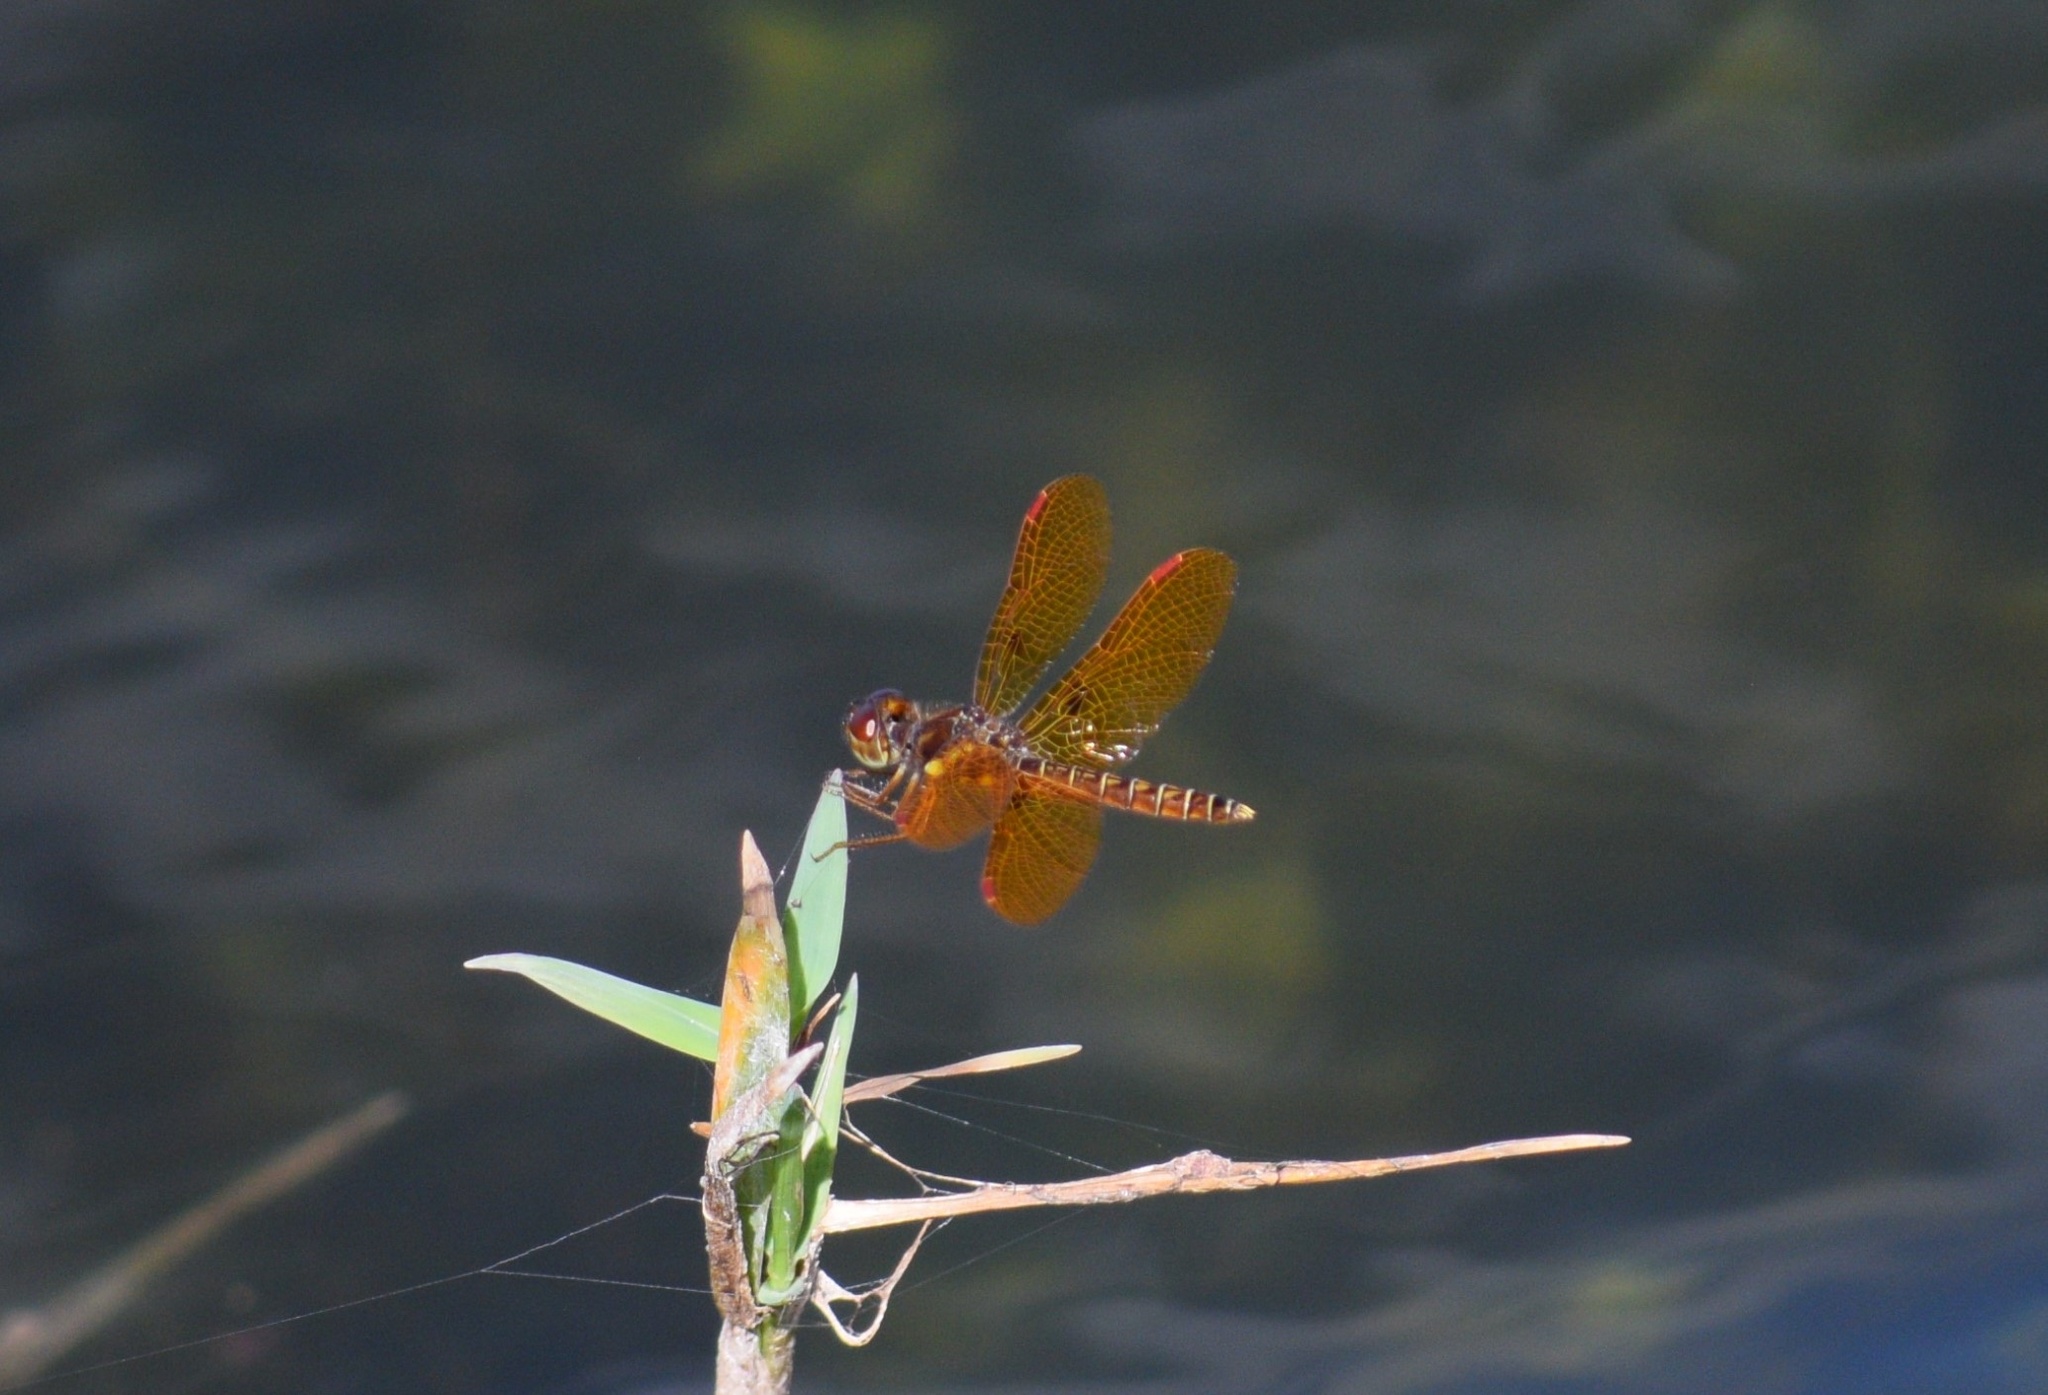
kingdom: Animalia
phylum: Arthropoda
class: Insecta
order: Odonata
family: Libellulidae
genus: Perithemis
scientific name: Perithemis tenera
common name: Eastern amberwing
